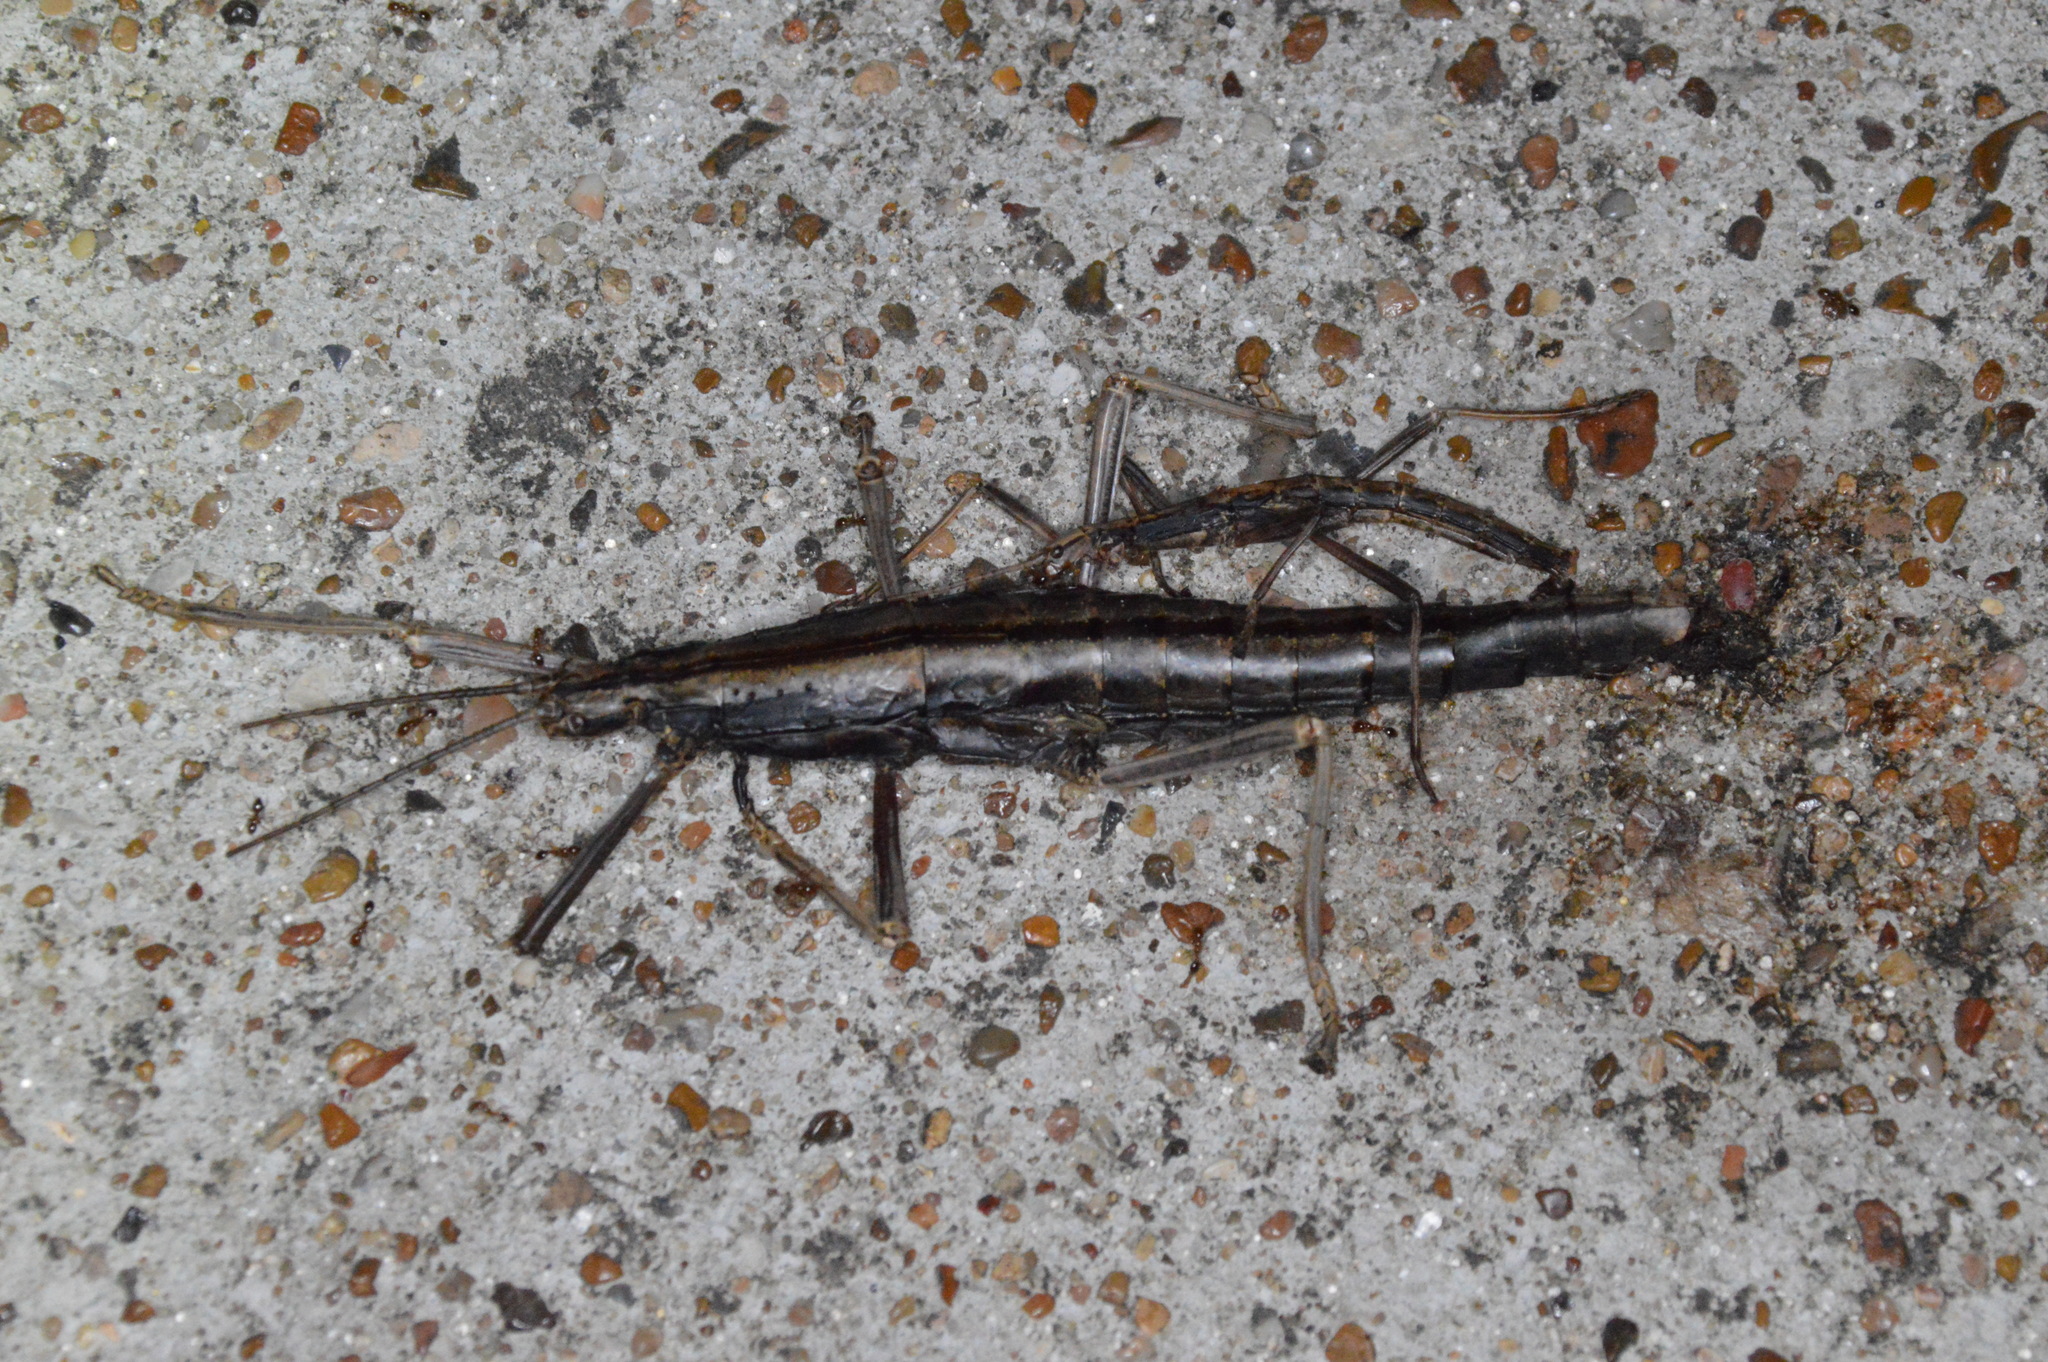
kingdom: Animalia
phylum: Arthropoda
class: Insecta
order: Phasmida
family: Pseudophasmatidae
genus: Anisomorpha
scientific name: Anisomorpha buprestoides
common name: Florida stick insect
